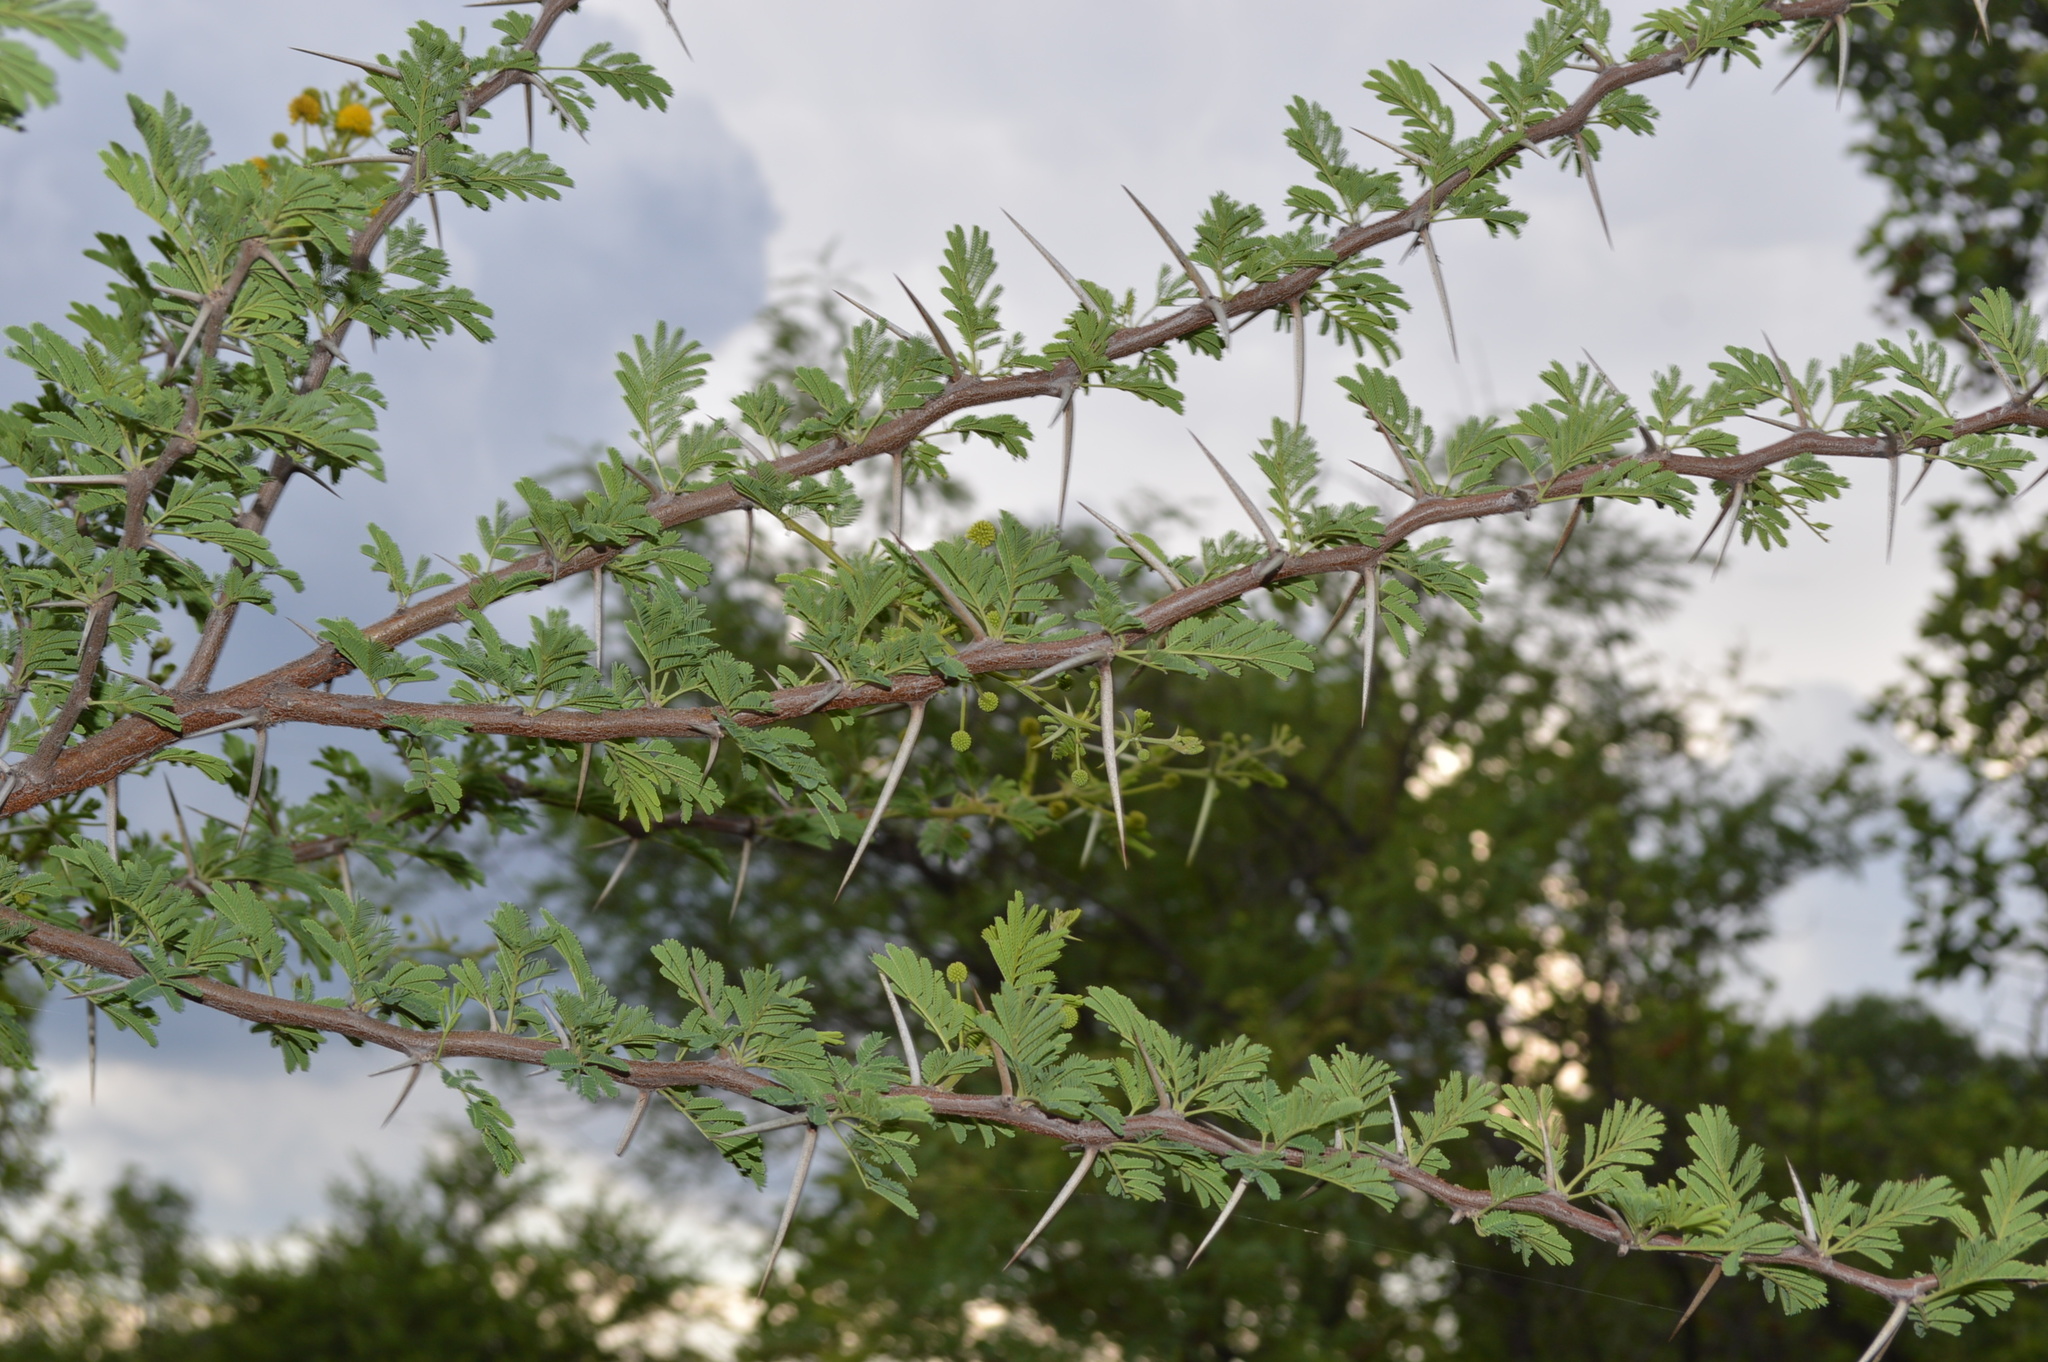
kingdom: Plantae
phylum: Tracheophyta
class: Magnoliopsida
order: Fabales
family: Fabaceae
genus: Vachellia
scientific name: Vachellia karroo
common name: Sweet thorn
